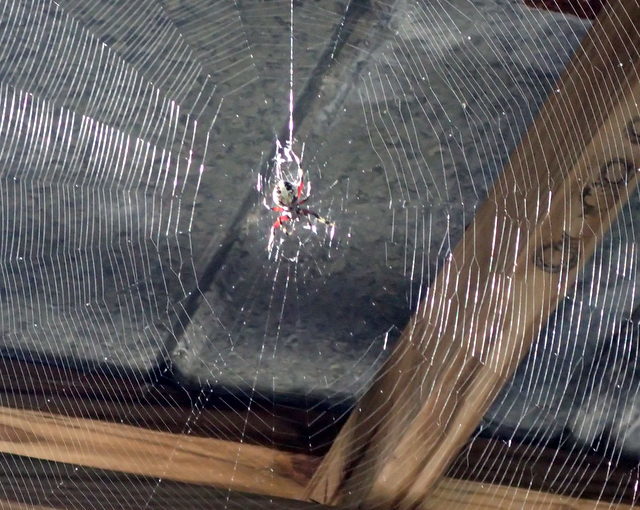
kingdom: Animalia
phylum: Arthropoda
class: Arachnida
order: Araneae
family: Araneidae
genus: Neoscona
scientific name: Neoscona domiciliorum
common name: Red-femured spotted orbweaver
